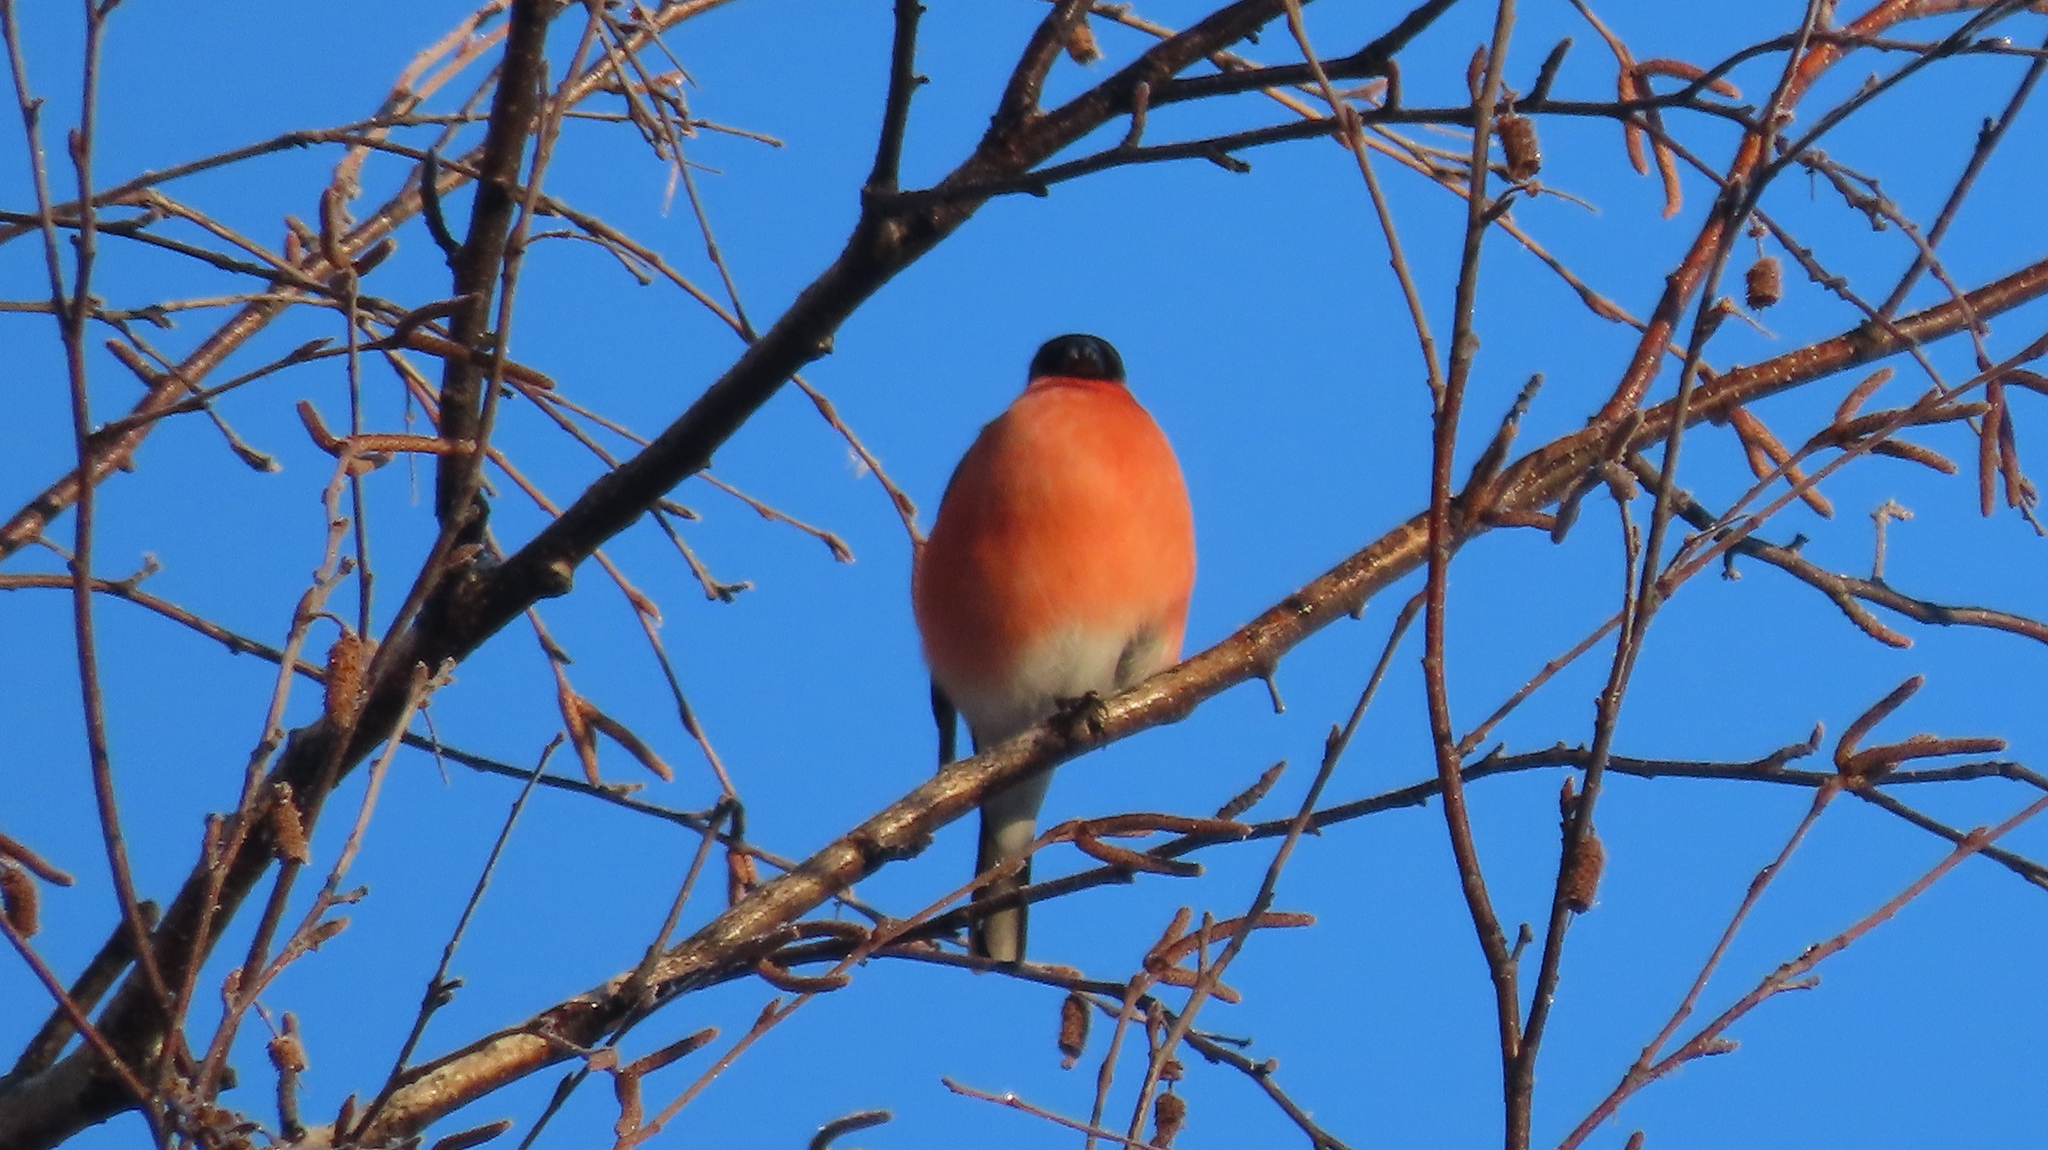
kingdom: Animalia
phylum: Chordata
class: Aves
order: Passeriformes
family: Fringillidae
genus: Pyrrhula
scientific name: Pyrrhula pyrrhula
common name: Eurasian bullfinch
